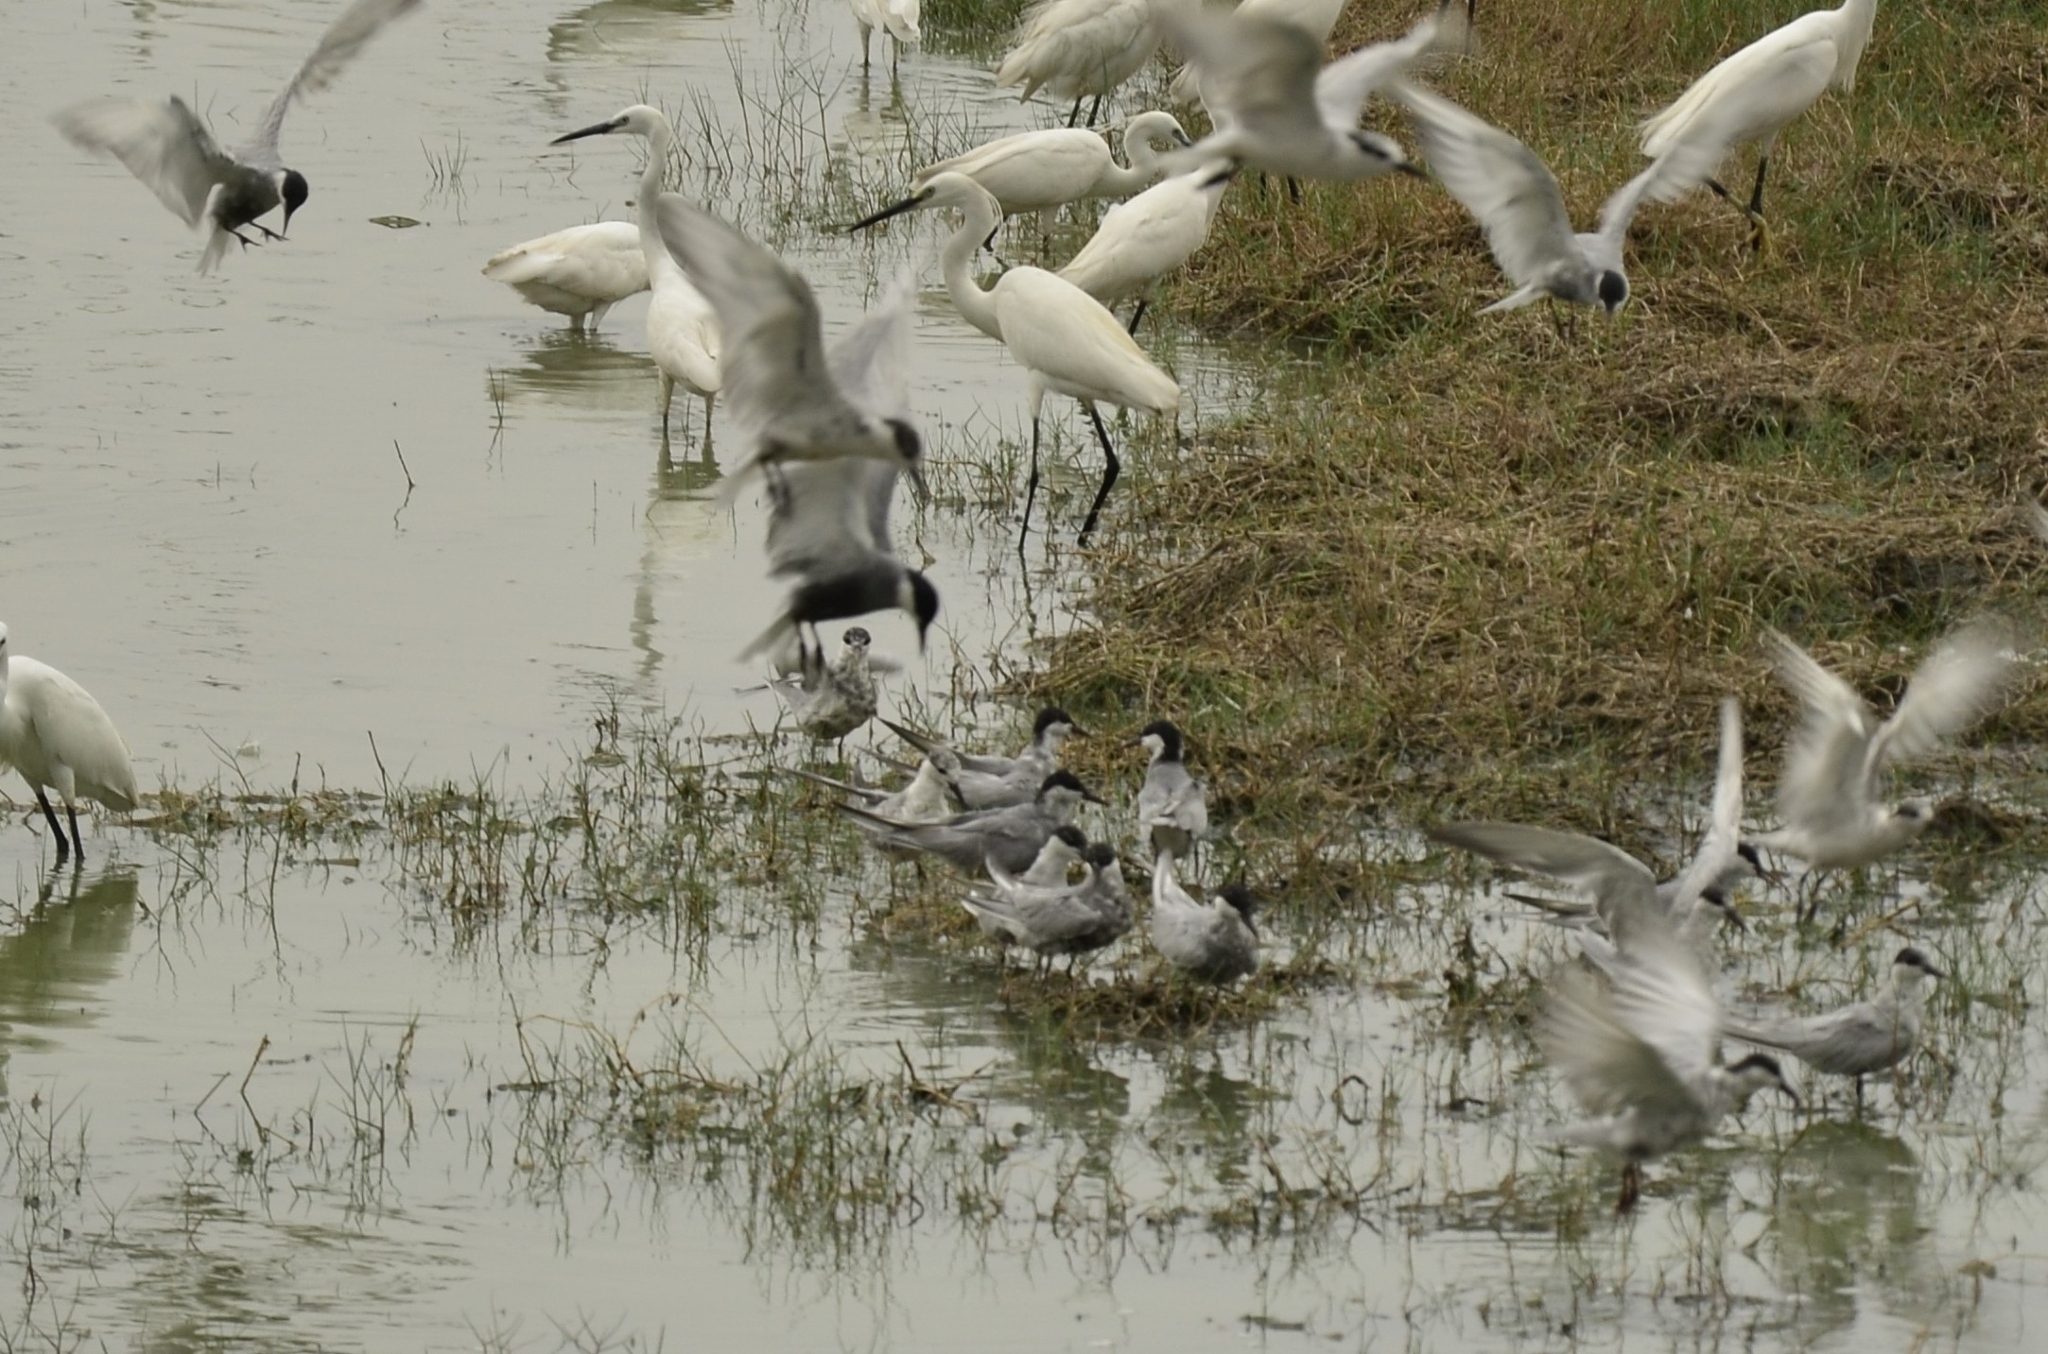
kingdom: Animalia
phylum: Chordata
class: Aves
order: Charadriiformes
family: Laridae
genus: Chlidonias
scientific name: Chlidonias hybrida
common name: Whiskered tern
